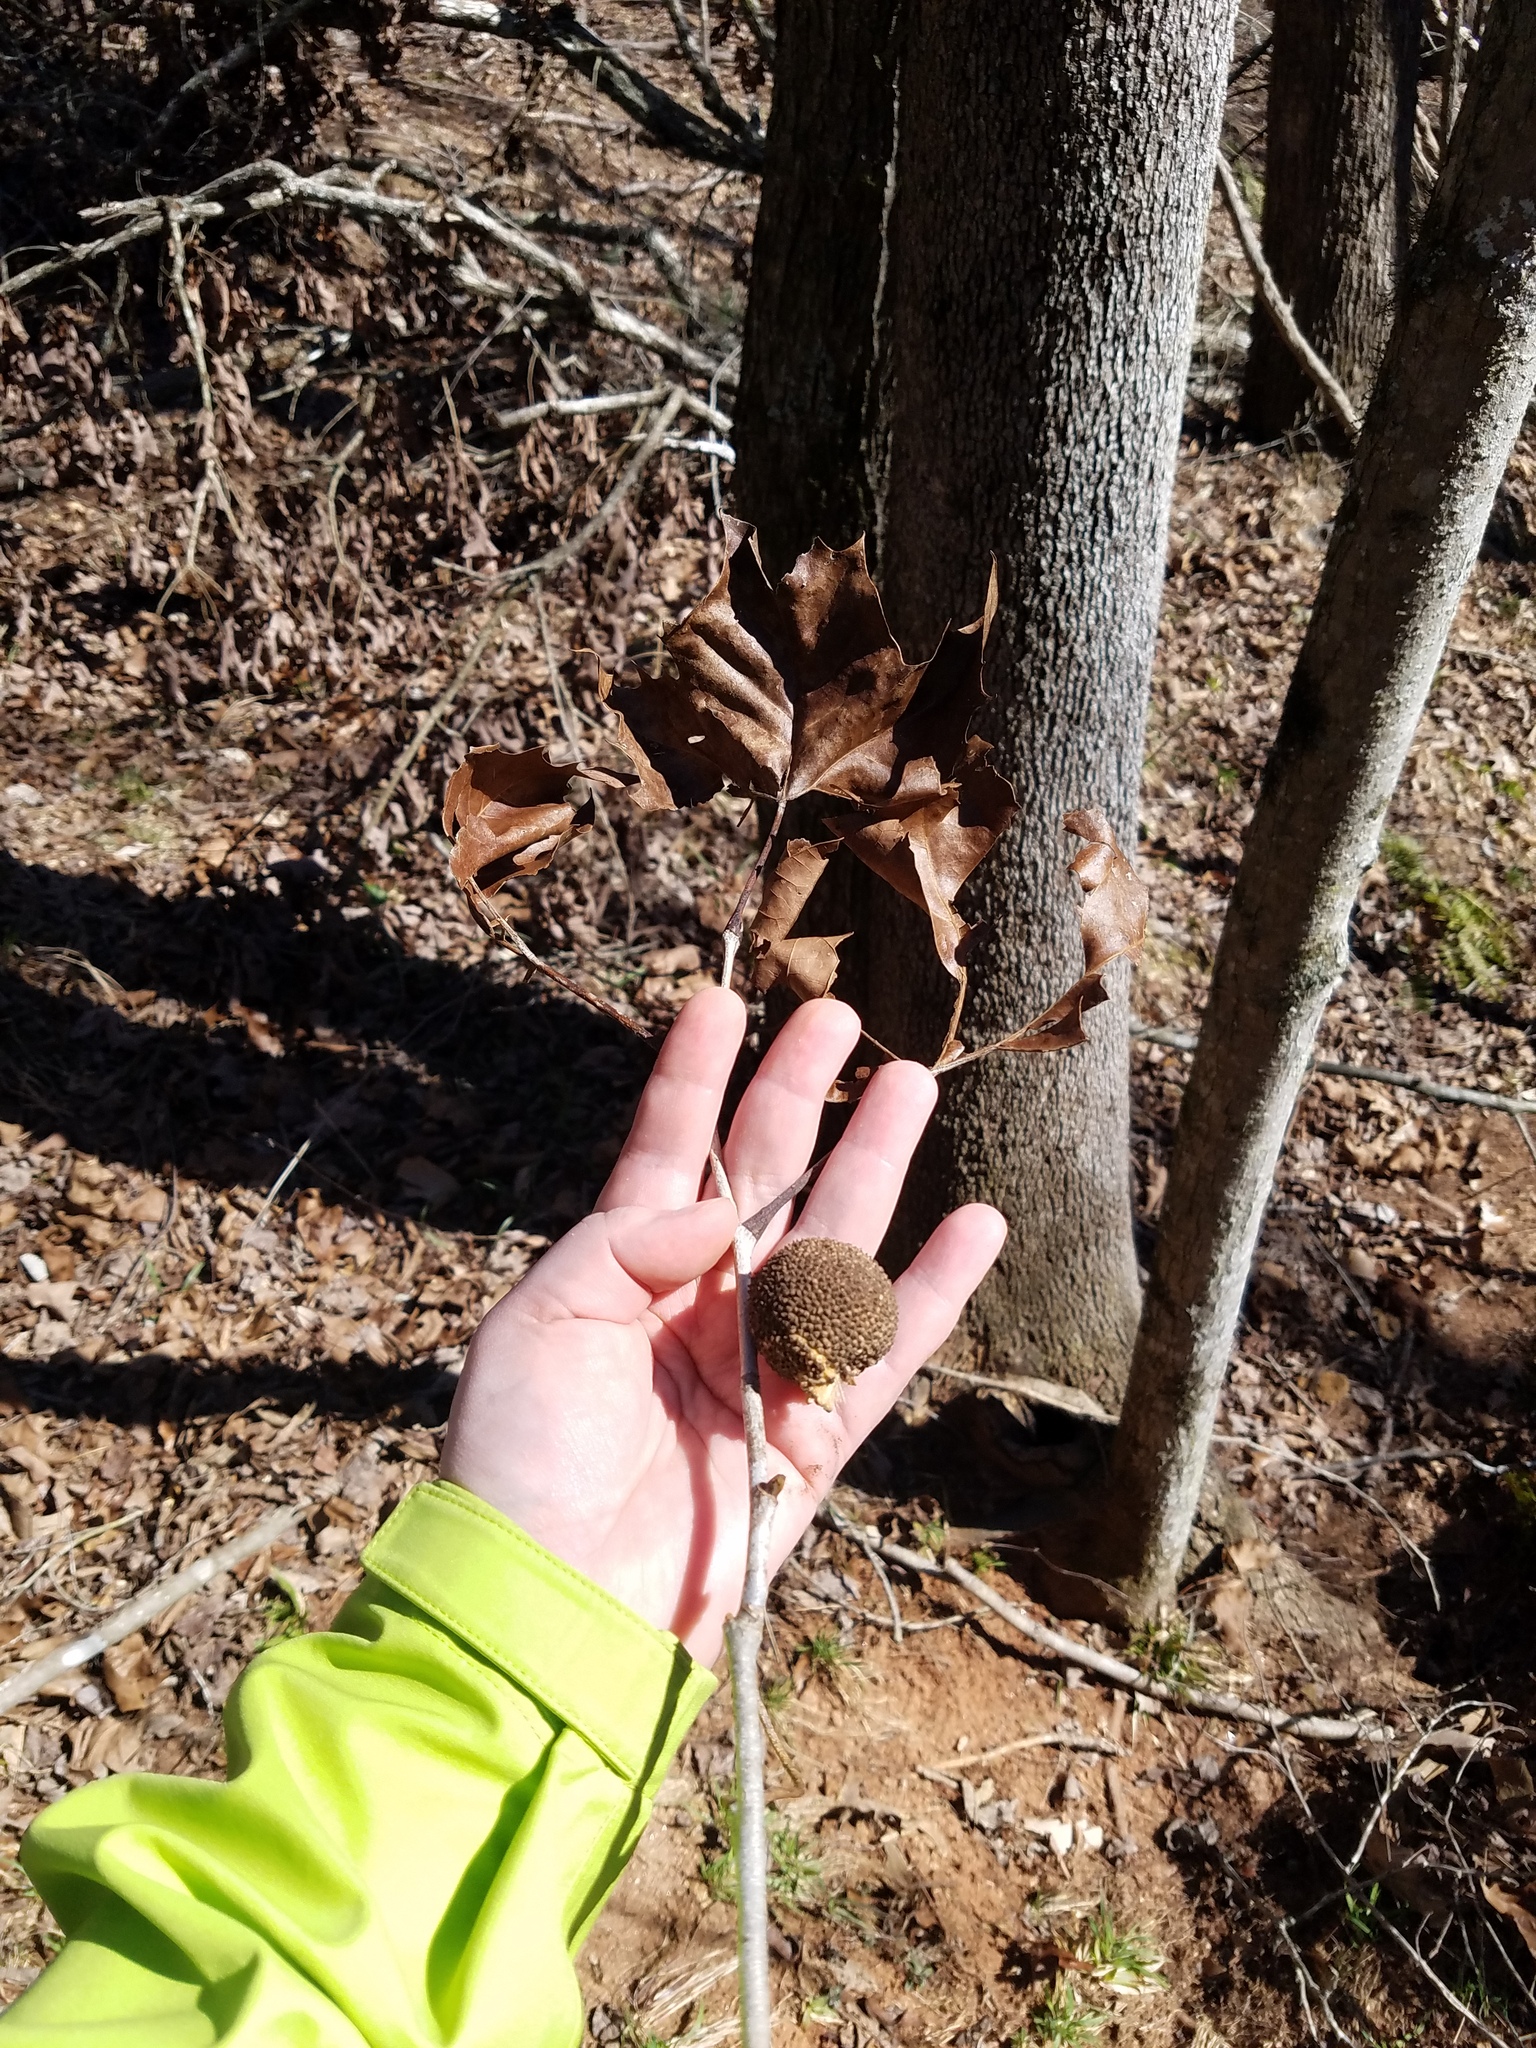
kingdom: Plantae
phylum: Tracheophyta
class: Magnoliopsida
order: Proteales
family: Platanaceae
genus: Platanus
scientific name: Platanus occidentalis
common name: American sycamore
